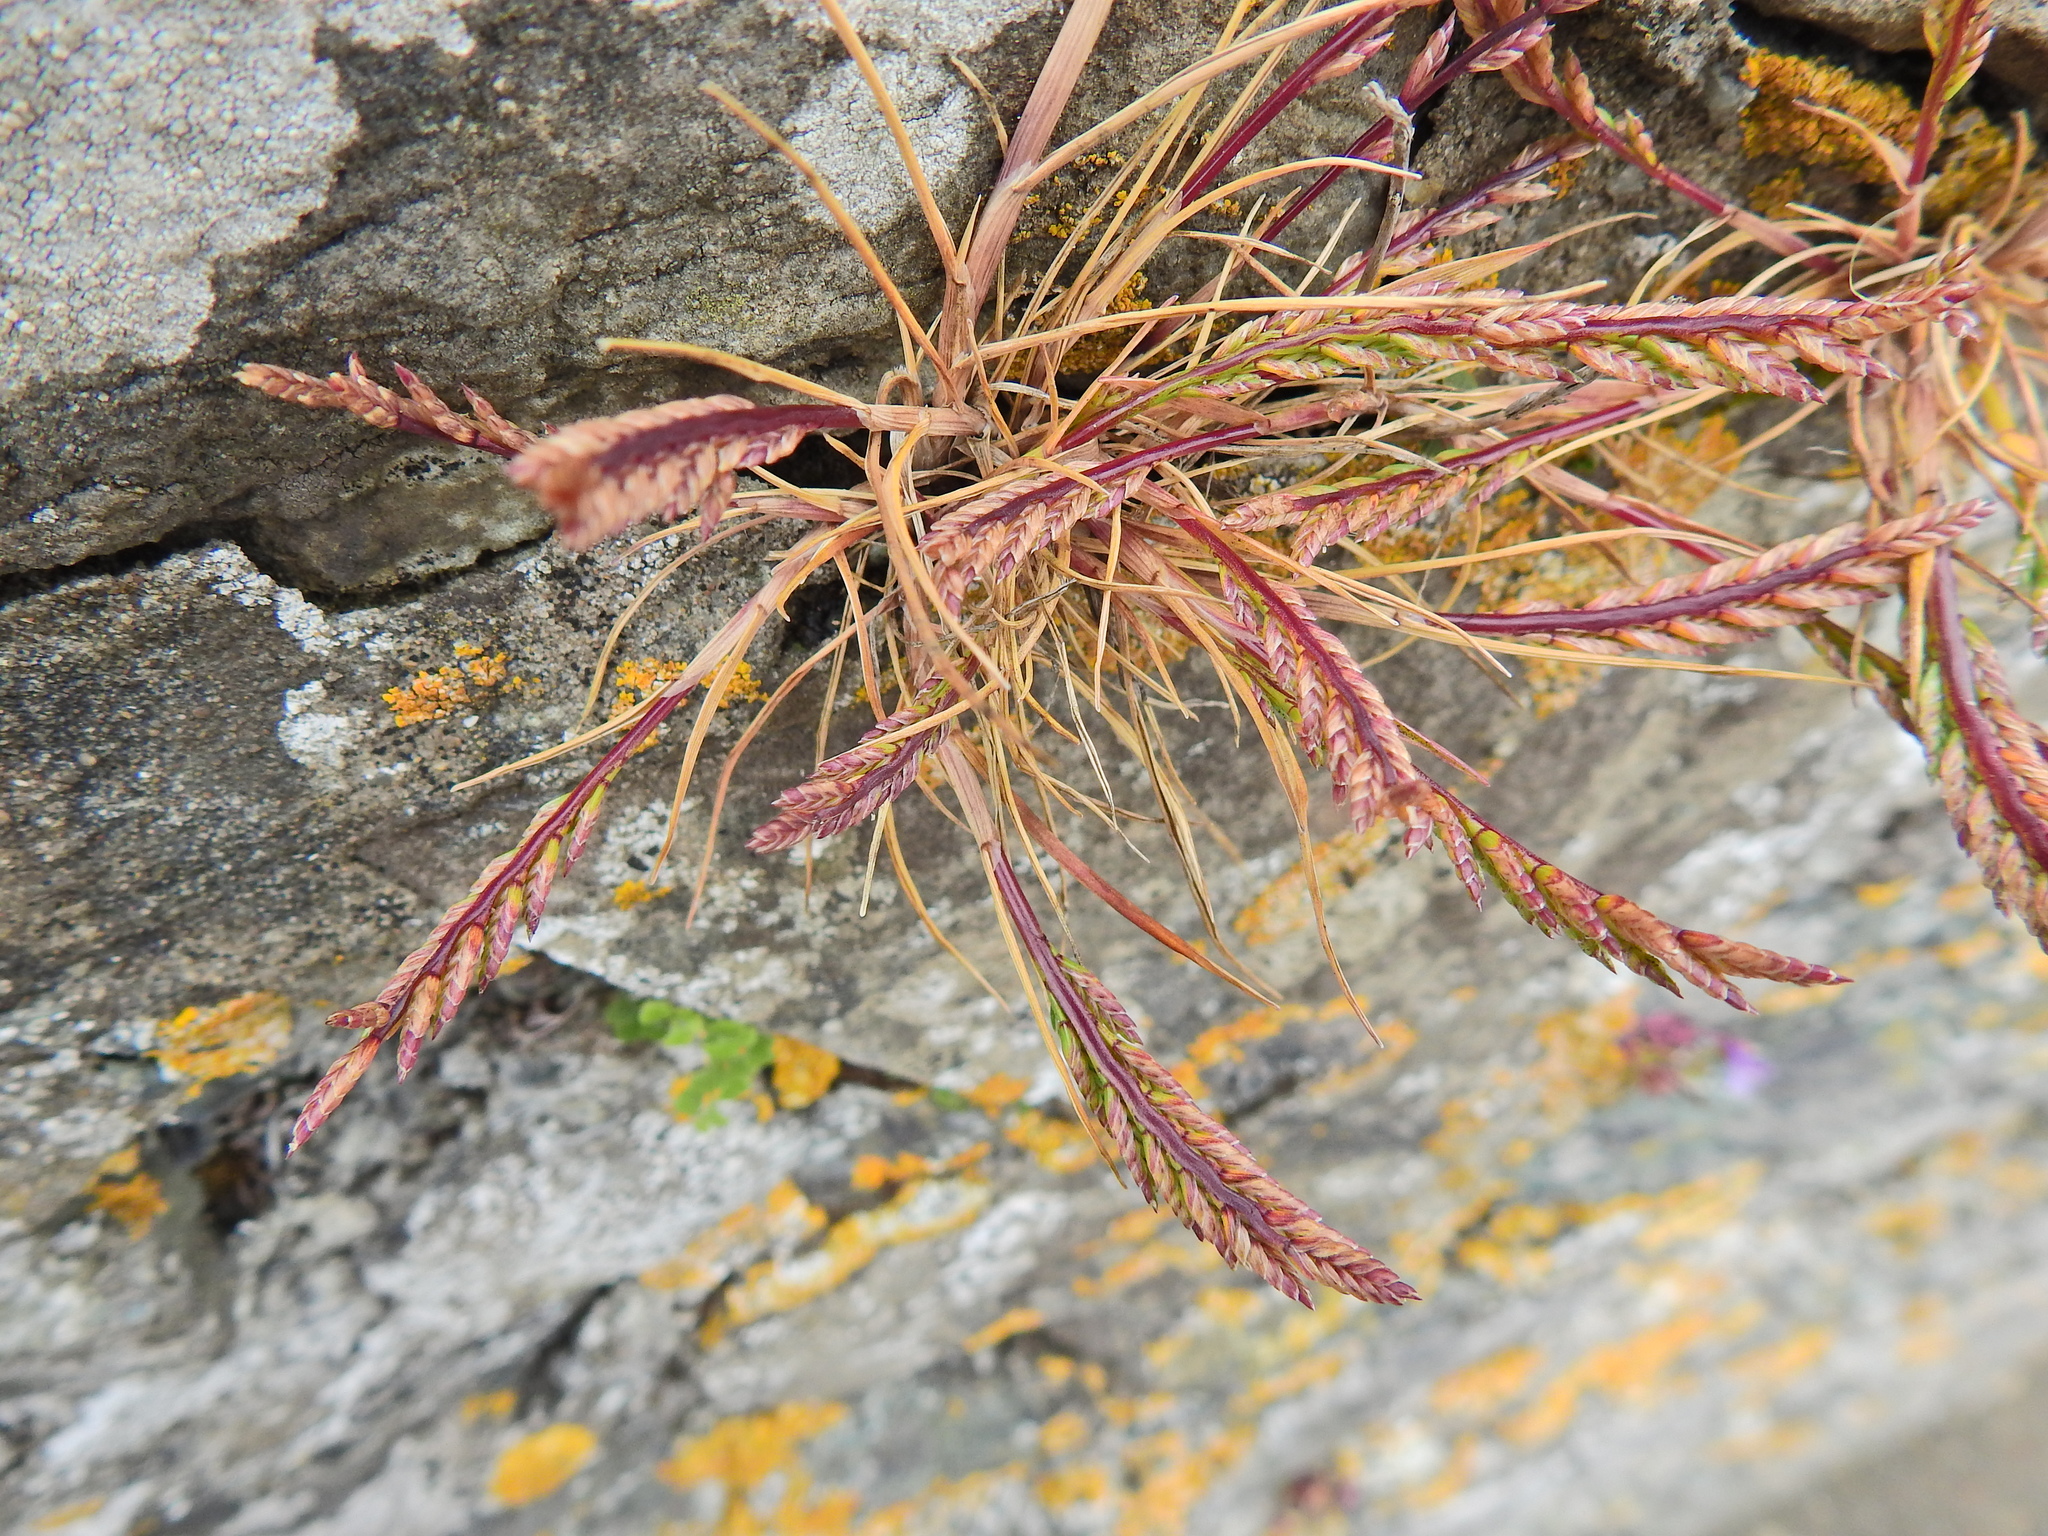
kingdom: Plantae
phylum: Tracheophyta
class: Liliopsida
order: Poales
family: Poaceae
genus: Catapodium
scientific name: Catapodium rigidum
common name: Fern-grass
